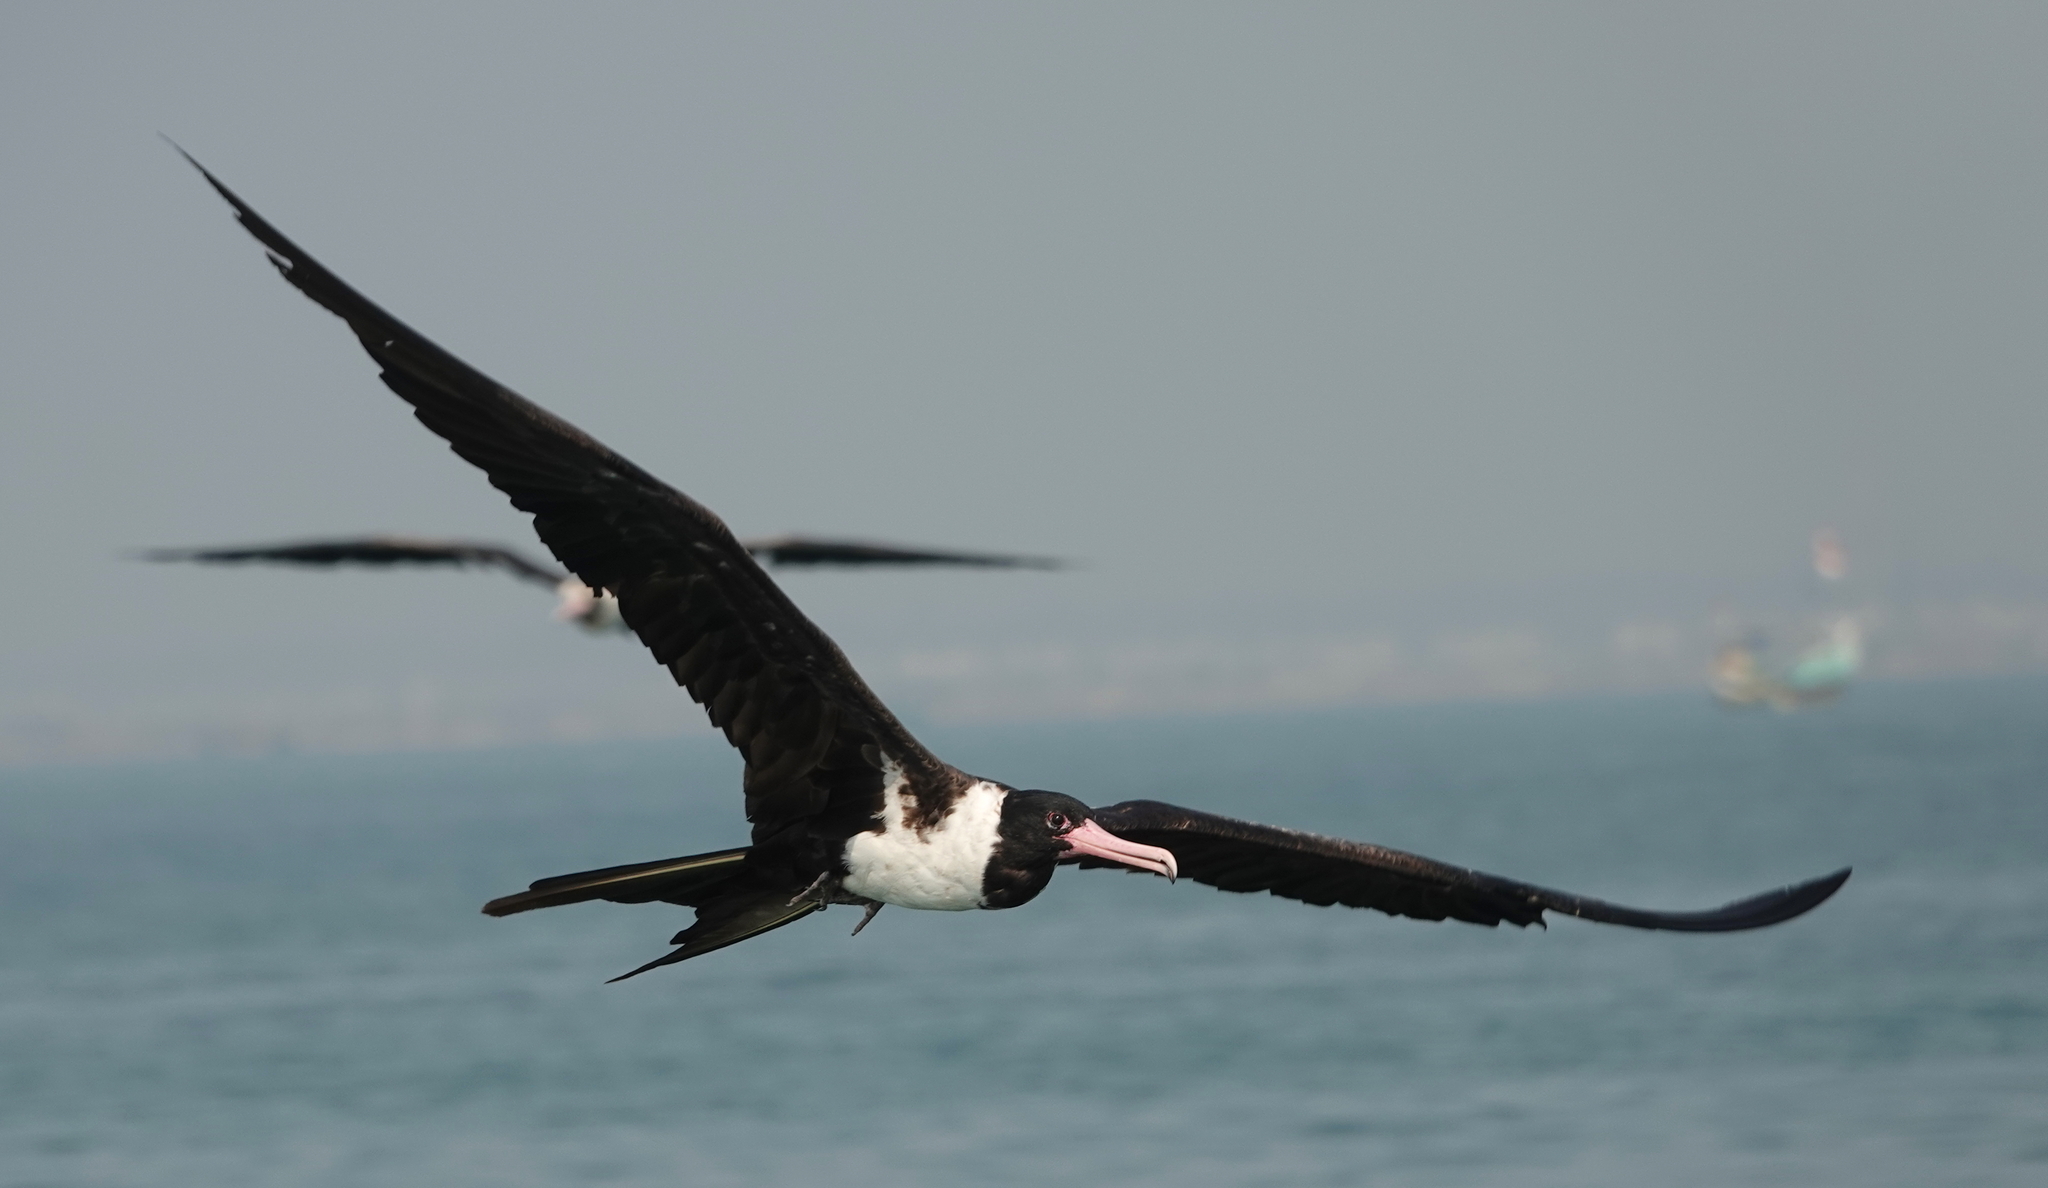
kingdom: Animalia
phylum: Chordata
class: Aves
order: Suliformes
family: Fregatidae
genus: Fregata
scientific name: Fregata andrewsi
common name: Christmas frigatebird
